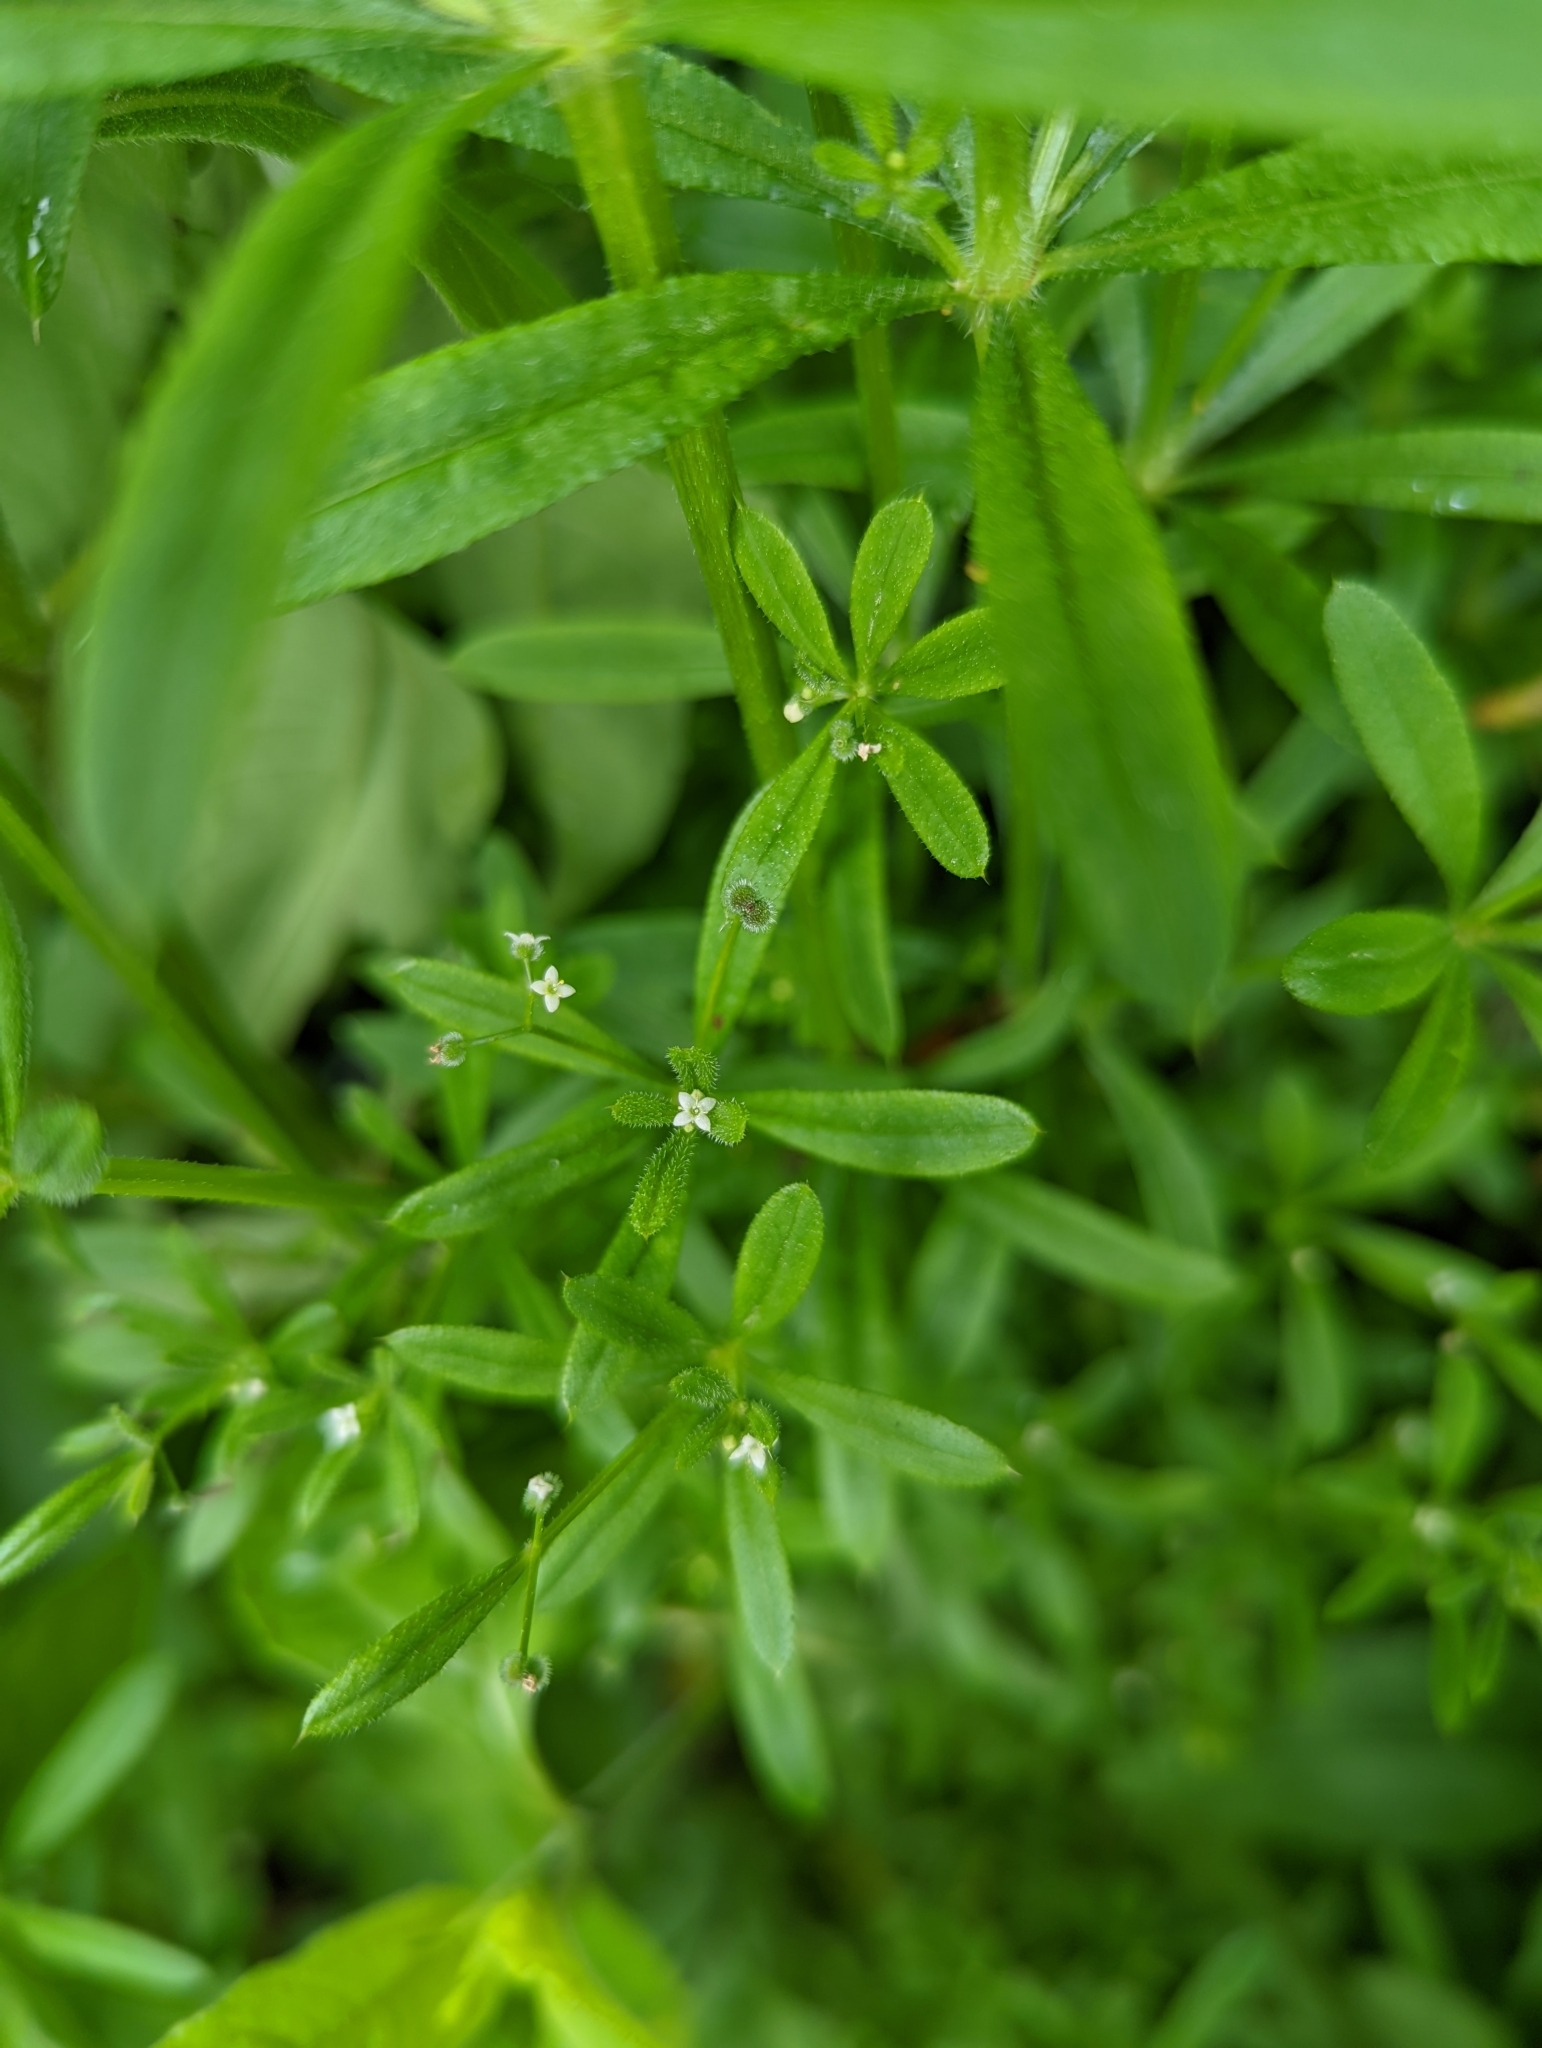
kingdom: Plantae
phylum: Tracheophyta
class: Magnoliopsida
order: Gentianales
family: Rubiaceae
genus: Galium
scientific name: Galium aparine
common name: Cleavers
